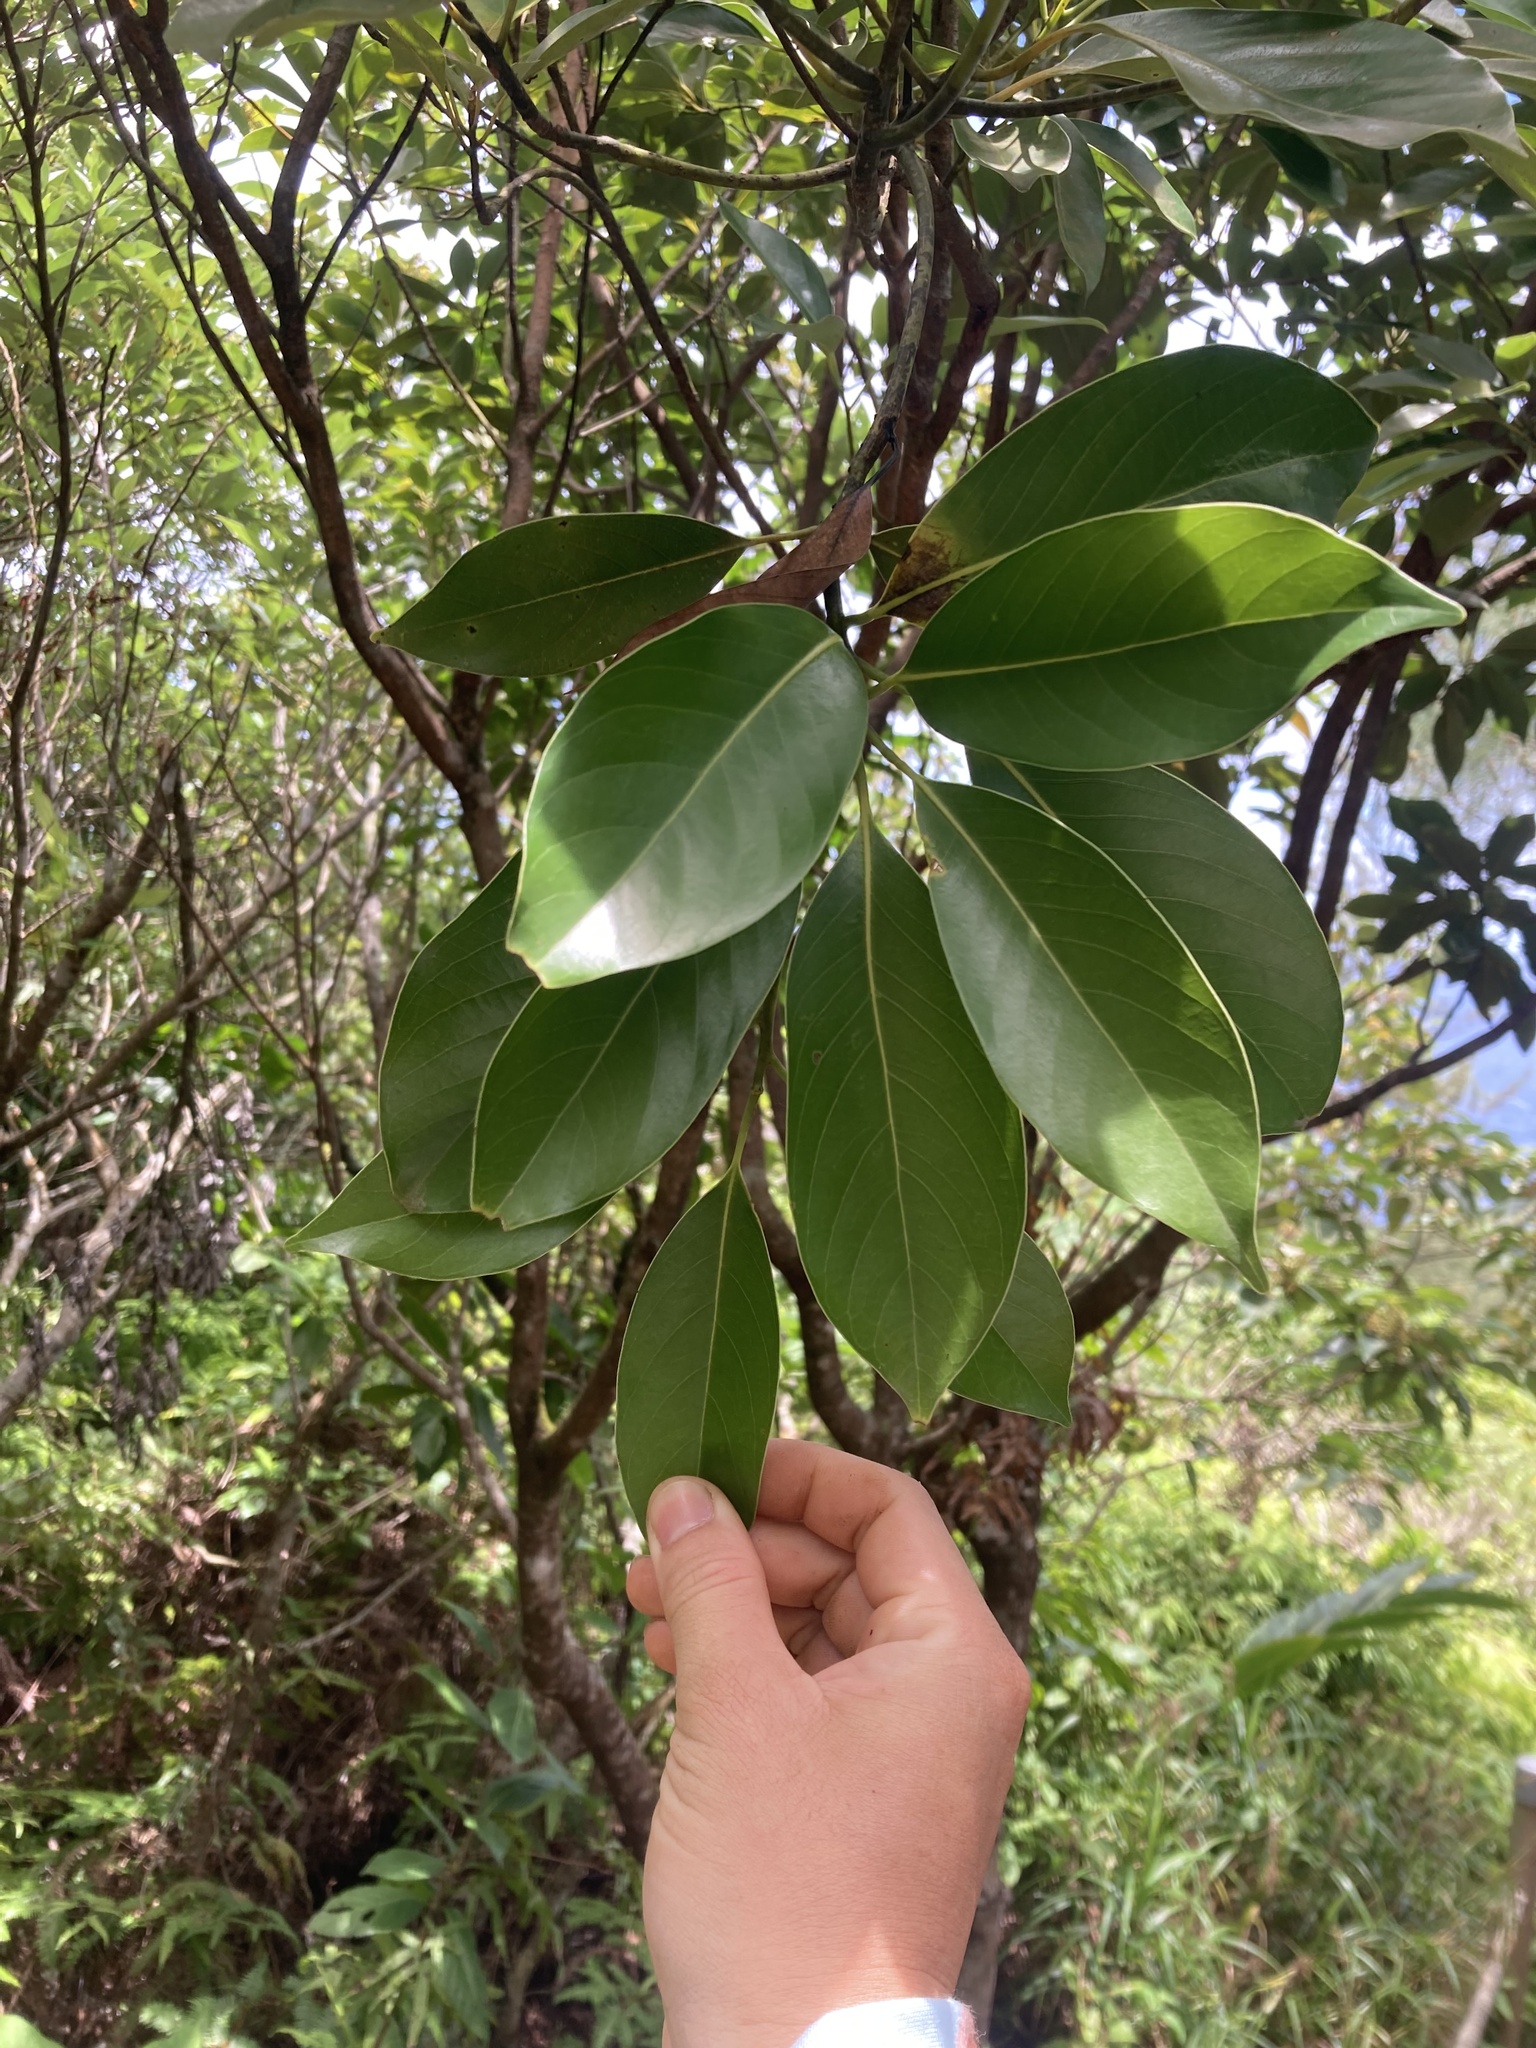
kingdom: Plantae
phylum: Tracheophyta
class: Magnoliopsida
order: Laurales
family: Lauraceae
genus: Machilus
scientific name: Machilus thunbergii
